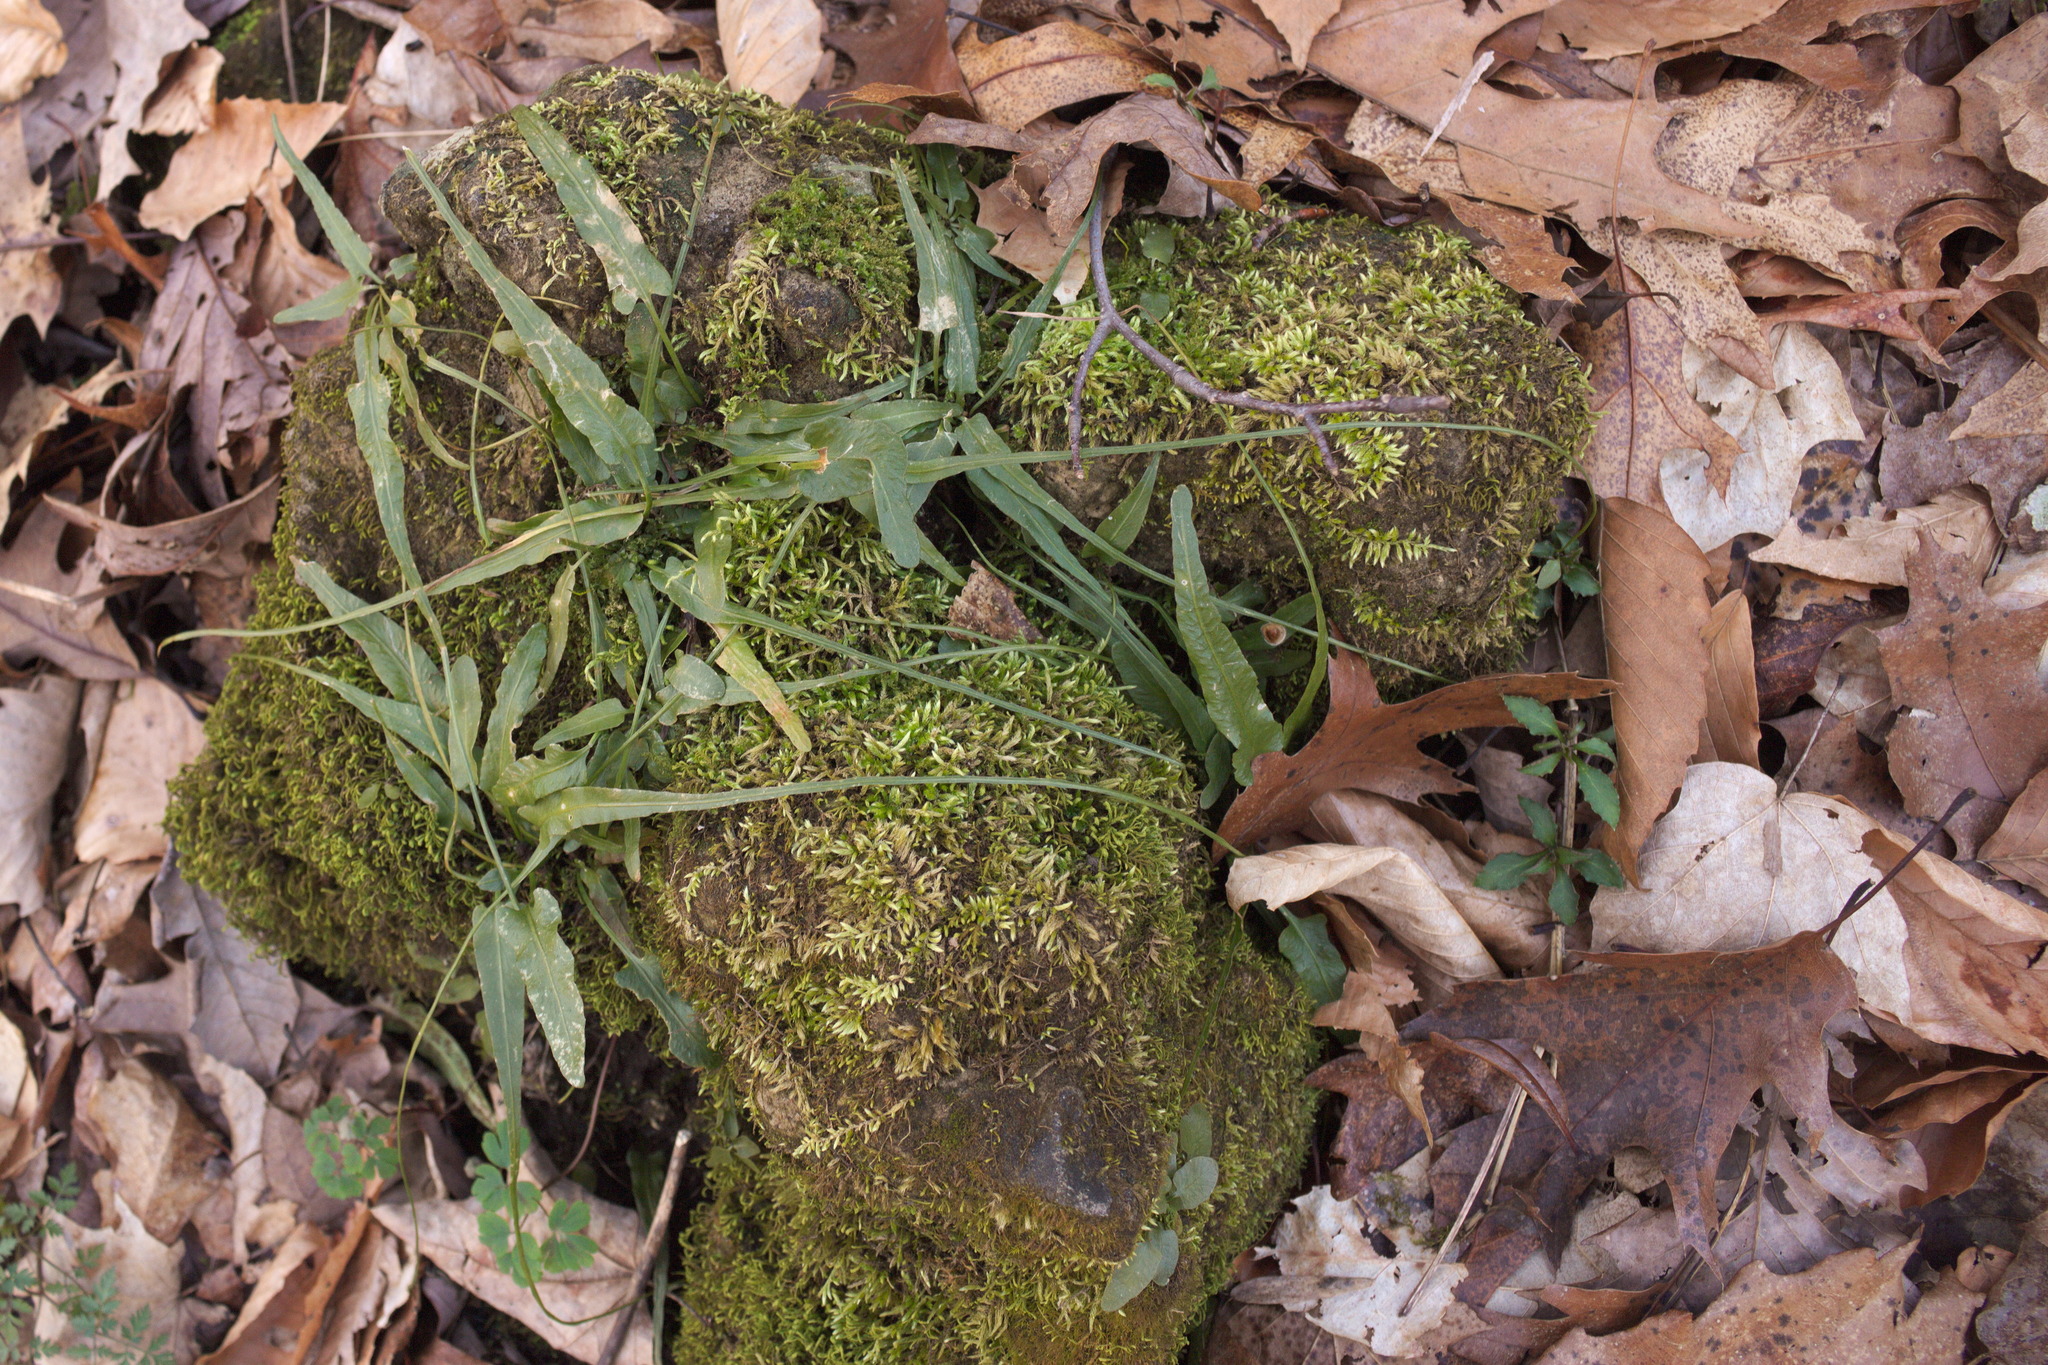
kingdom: Plantae
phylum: Tracheophyta
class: Polypodiopsida
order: Polypodiales
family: Aspleniaceae
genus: Asplenium
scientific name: Asplenium rhizophyllum
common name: Walking fern
